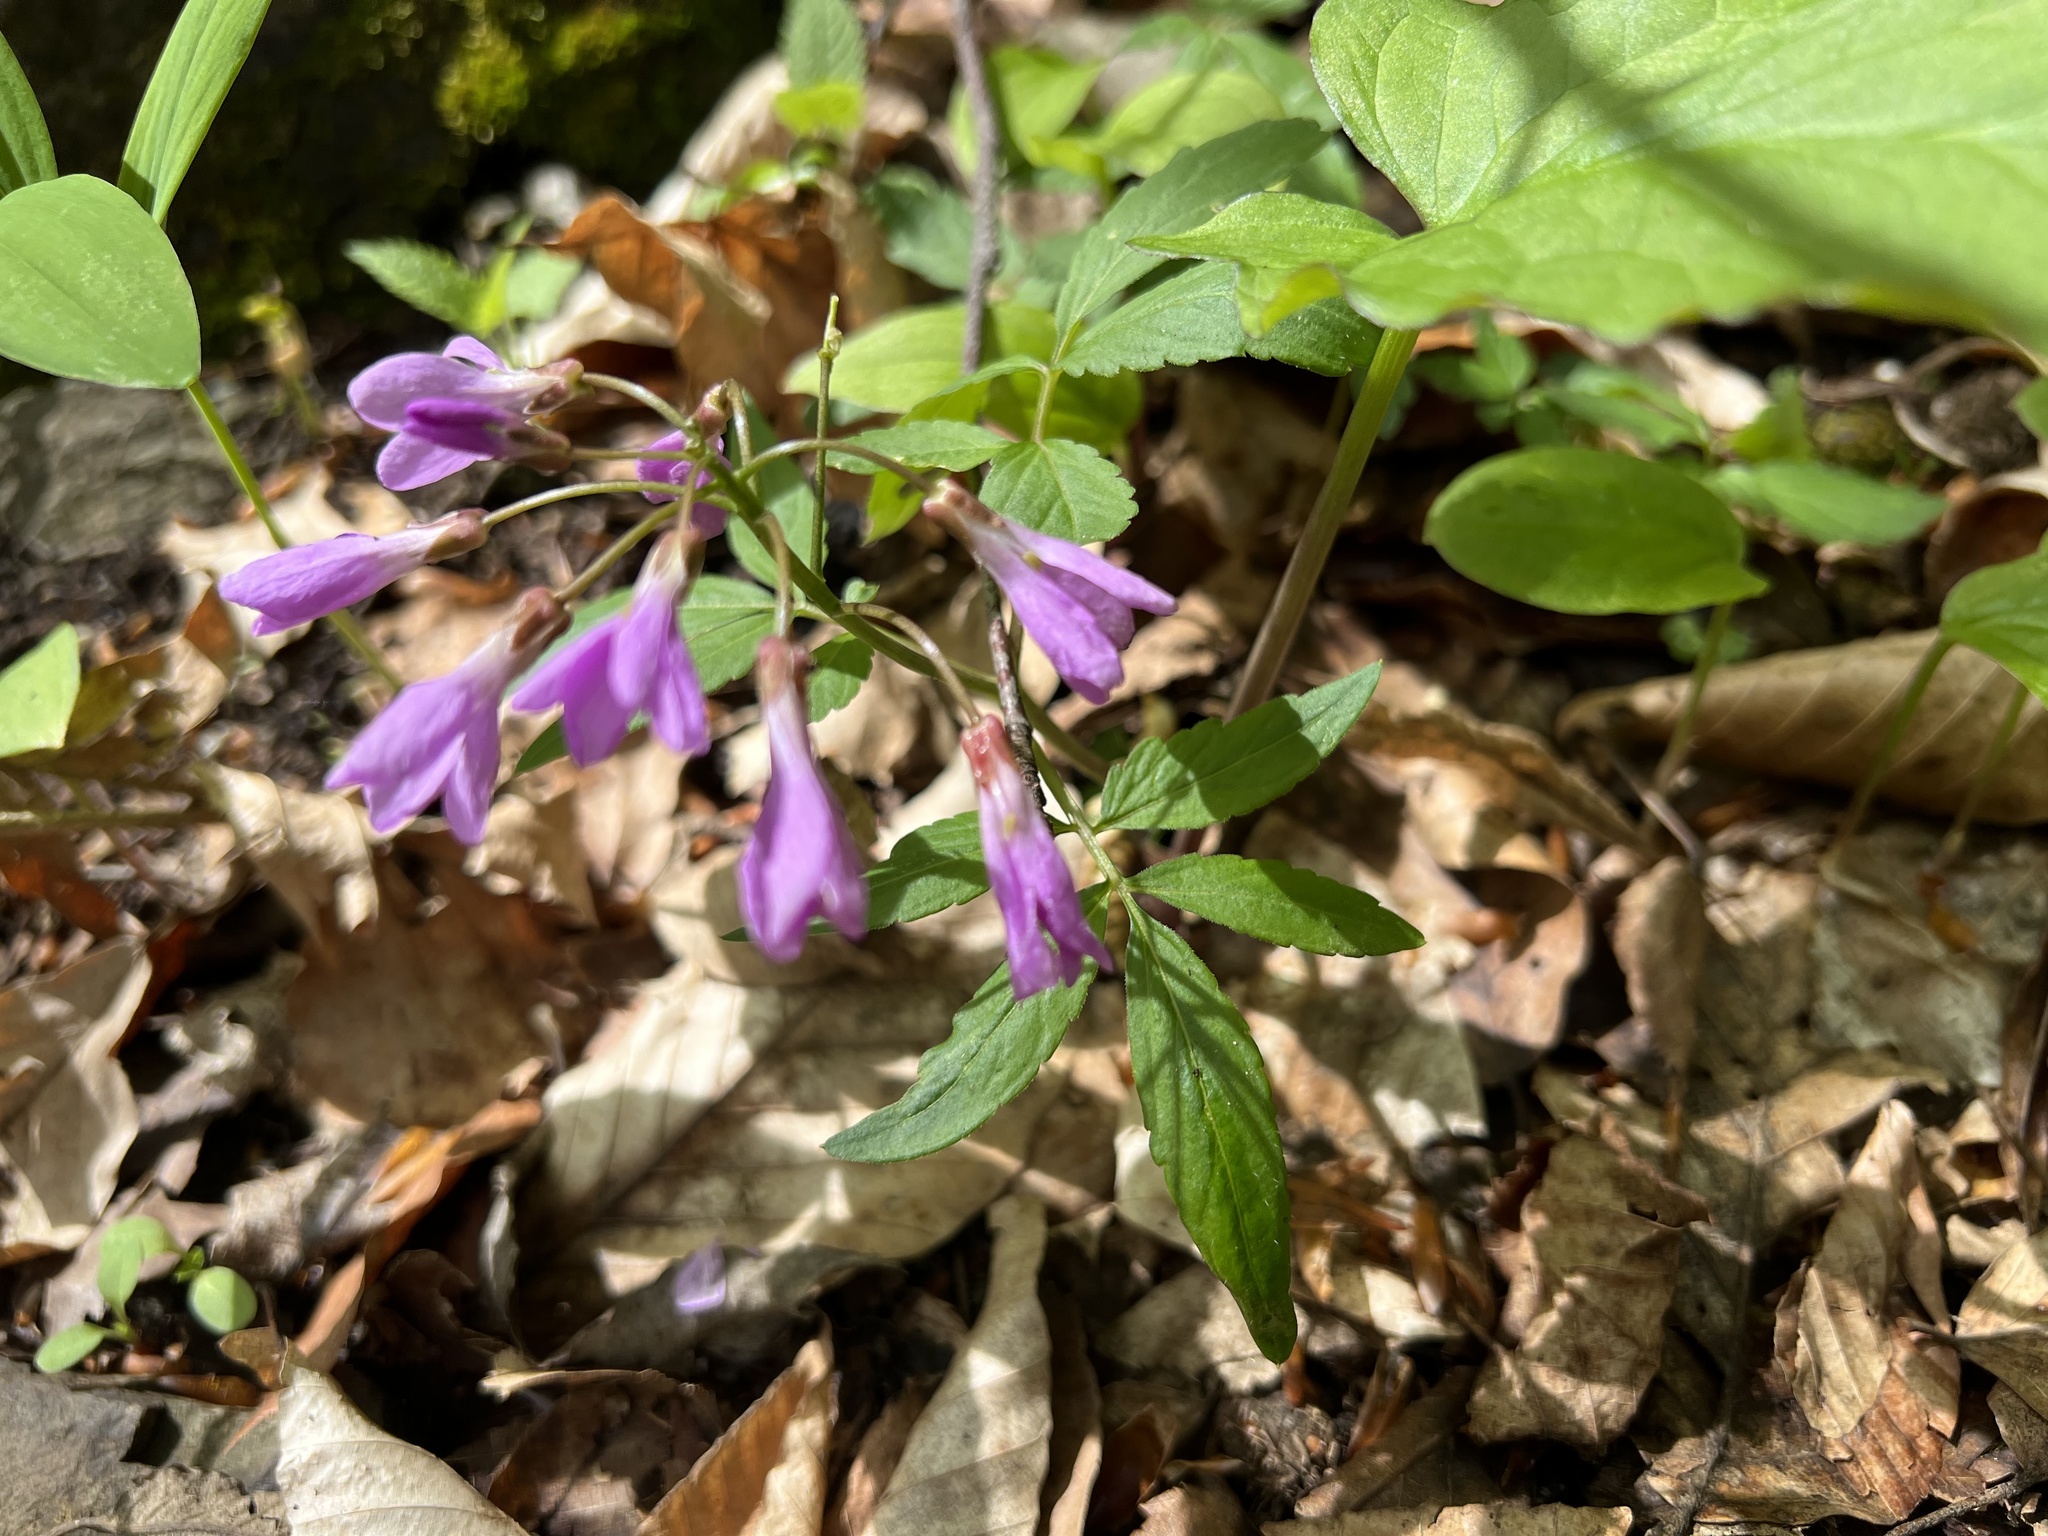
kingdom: Plantae
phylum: Tracheophyta
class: Magnoliopsida
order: Brassicales
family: Brassicaceae
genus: Cardamine
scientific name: Cardamine bulbifera
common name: Coralroot bittercress
